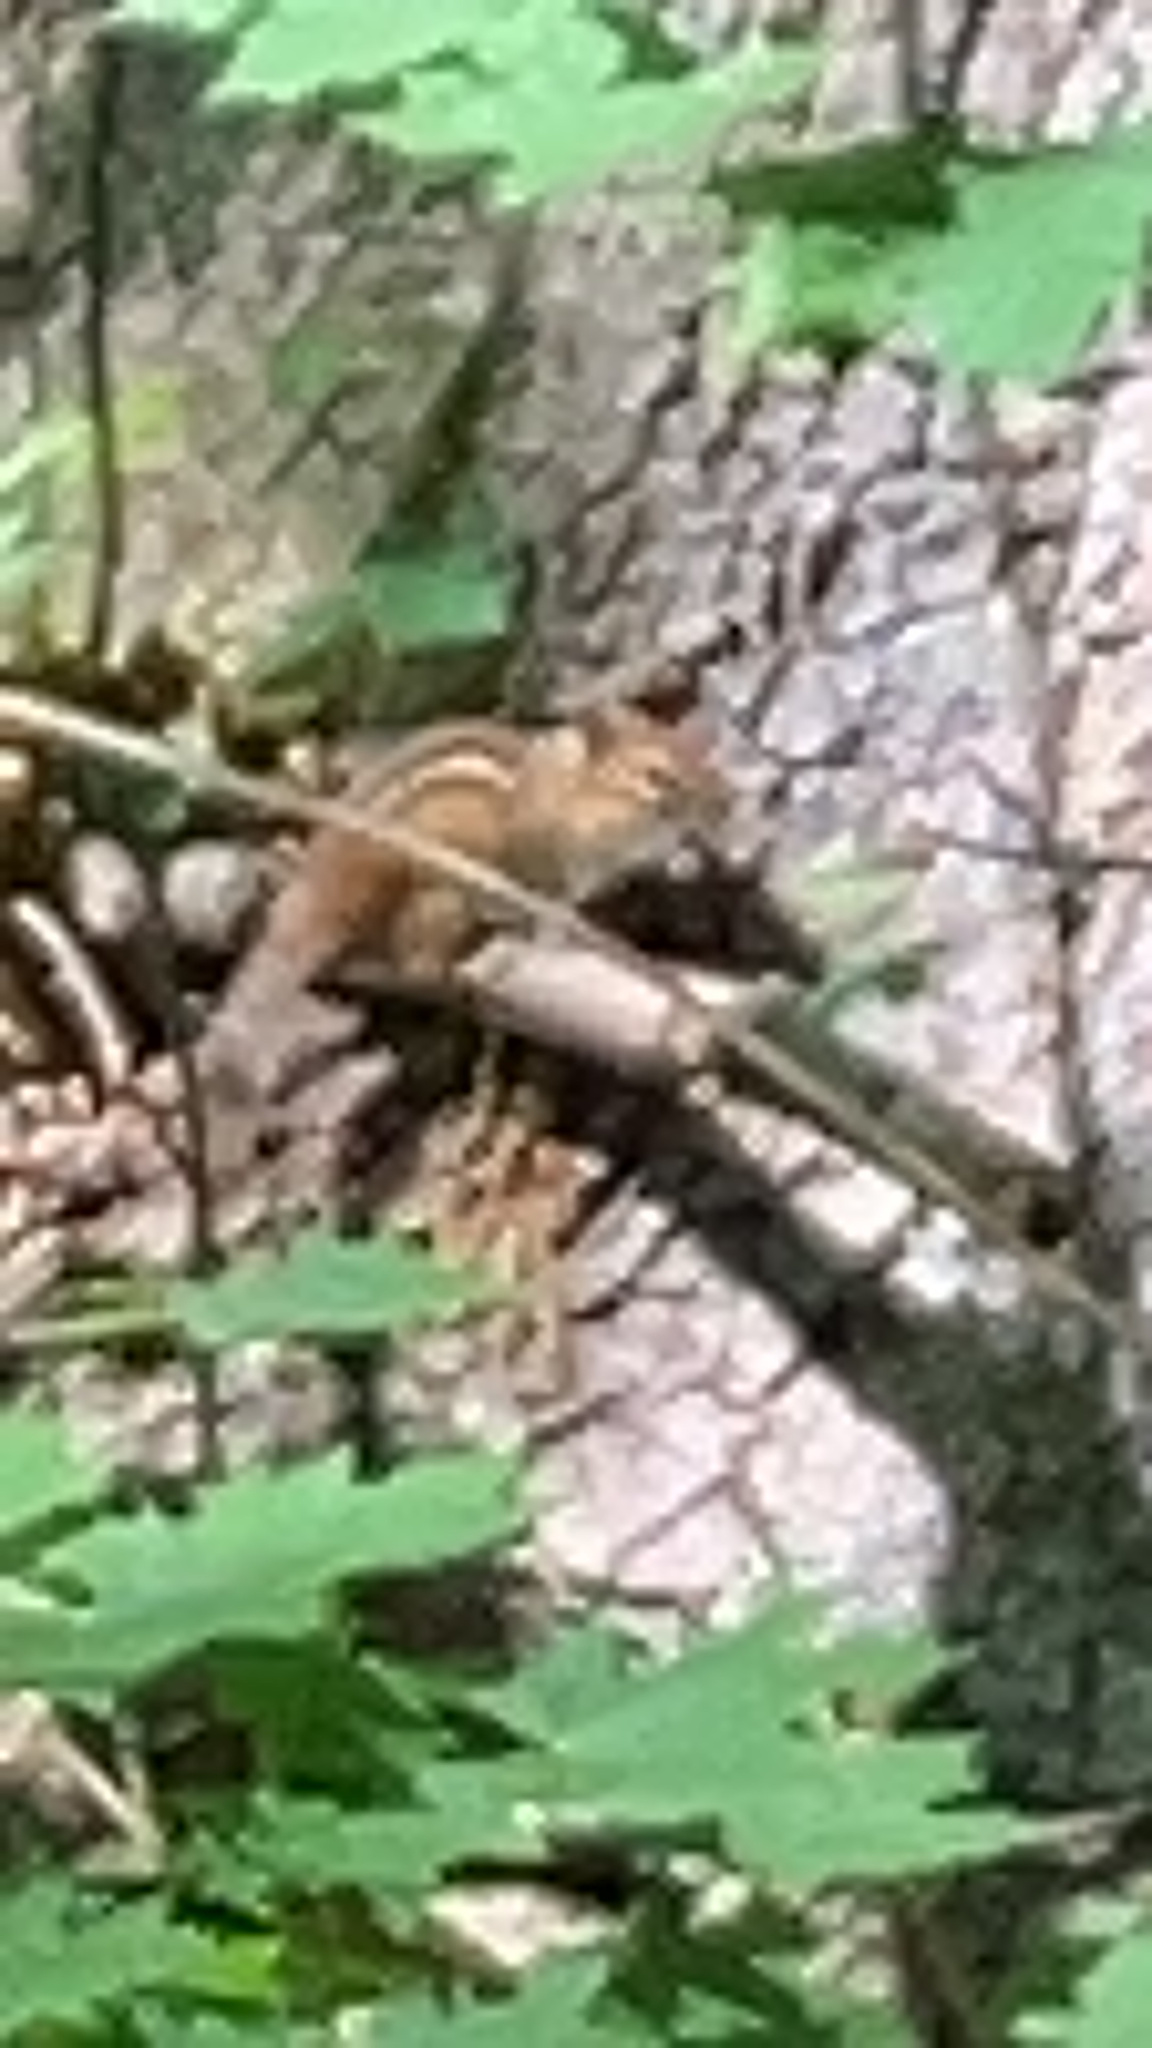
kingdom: Animalia
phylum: Chordata
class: Mammalia
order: Rodentia
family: Sciuridae
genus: Tamias
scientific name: Tamias striatus
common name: Eastern chipmunk
